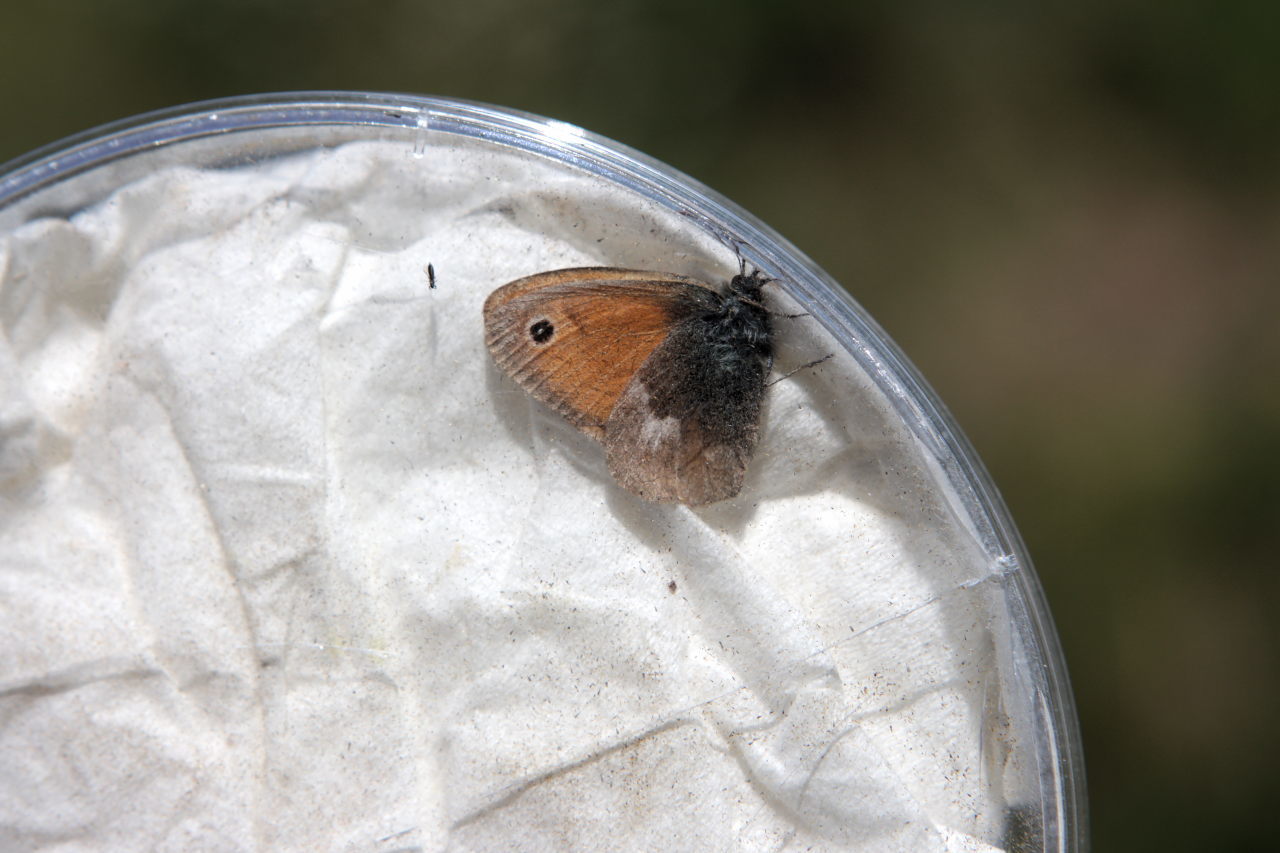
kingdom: Animalia
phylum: Arthropoda
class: Insecta
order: Lepidoptera
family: Nymphalidae
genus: Coenonympha
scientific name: Coenonympha pamphilus
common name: Small heath
